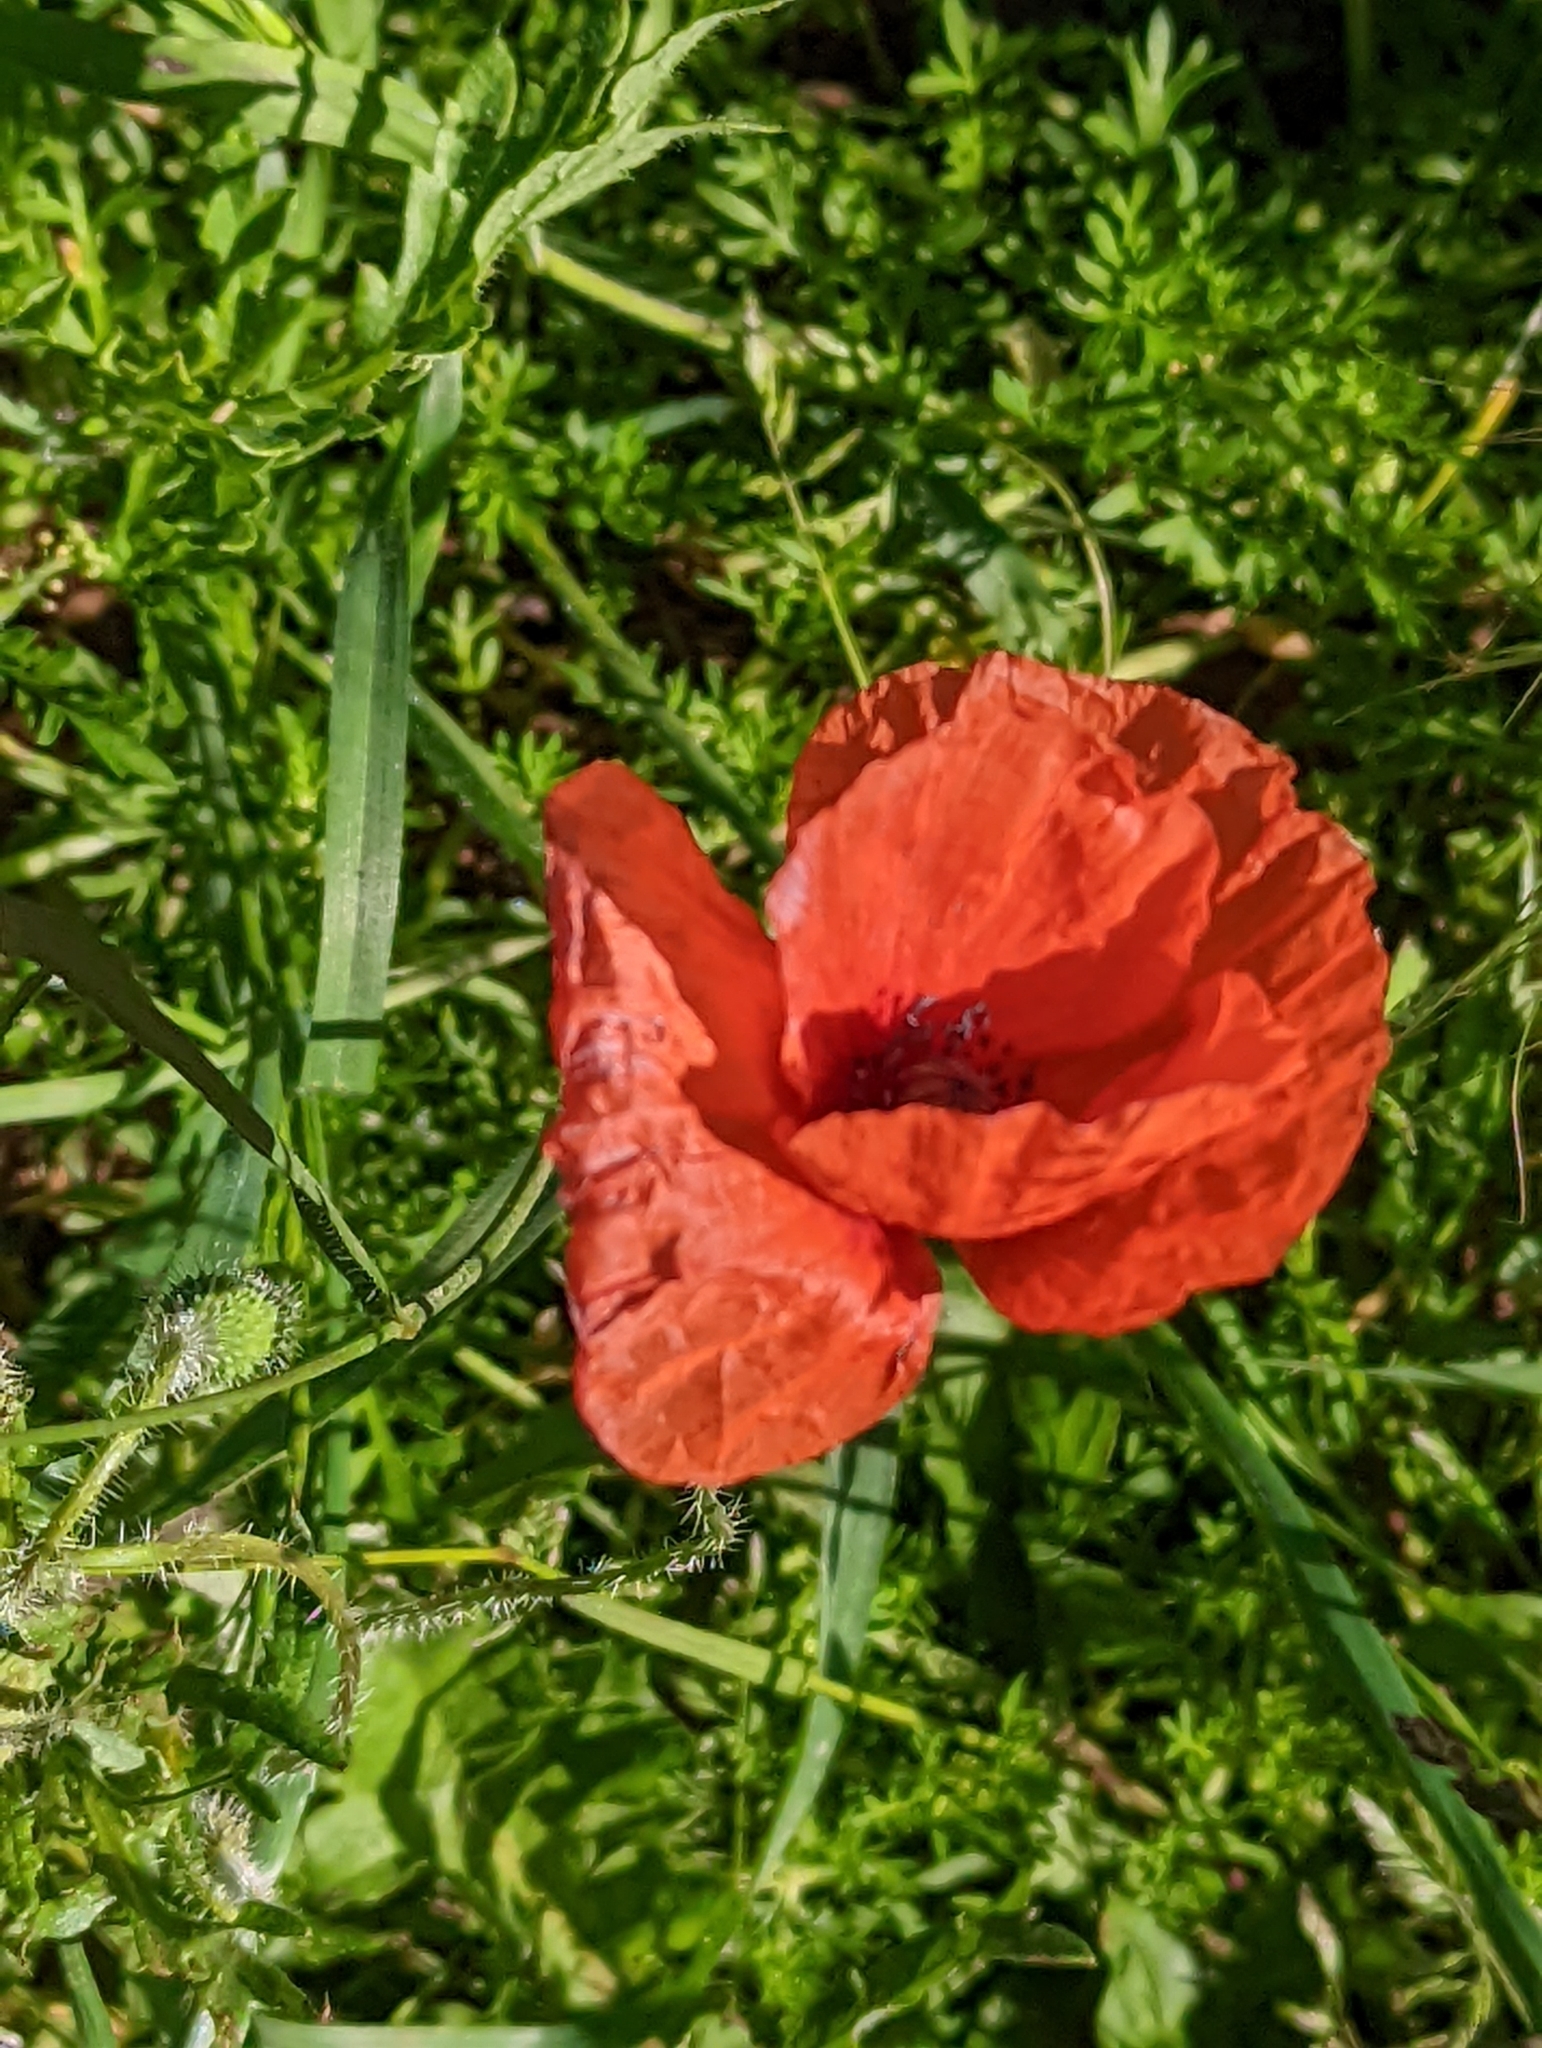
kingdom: Plantae
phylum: Tracheophyta
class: Magnoliopsida
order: Ranunculales
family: Papaveraceae
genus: Papaver
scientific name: Papaver rhoeas
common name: Corn poppy
